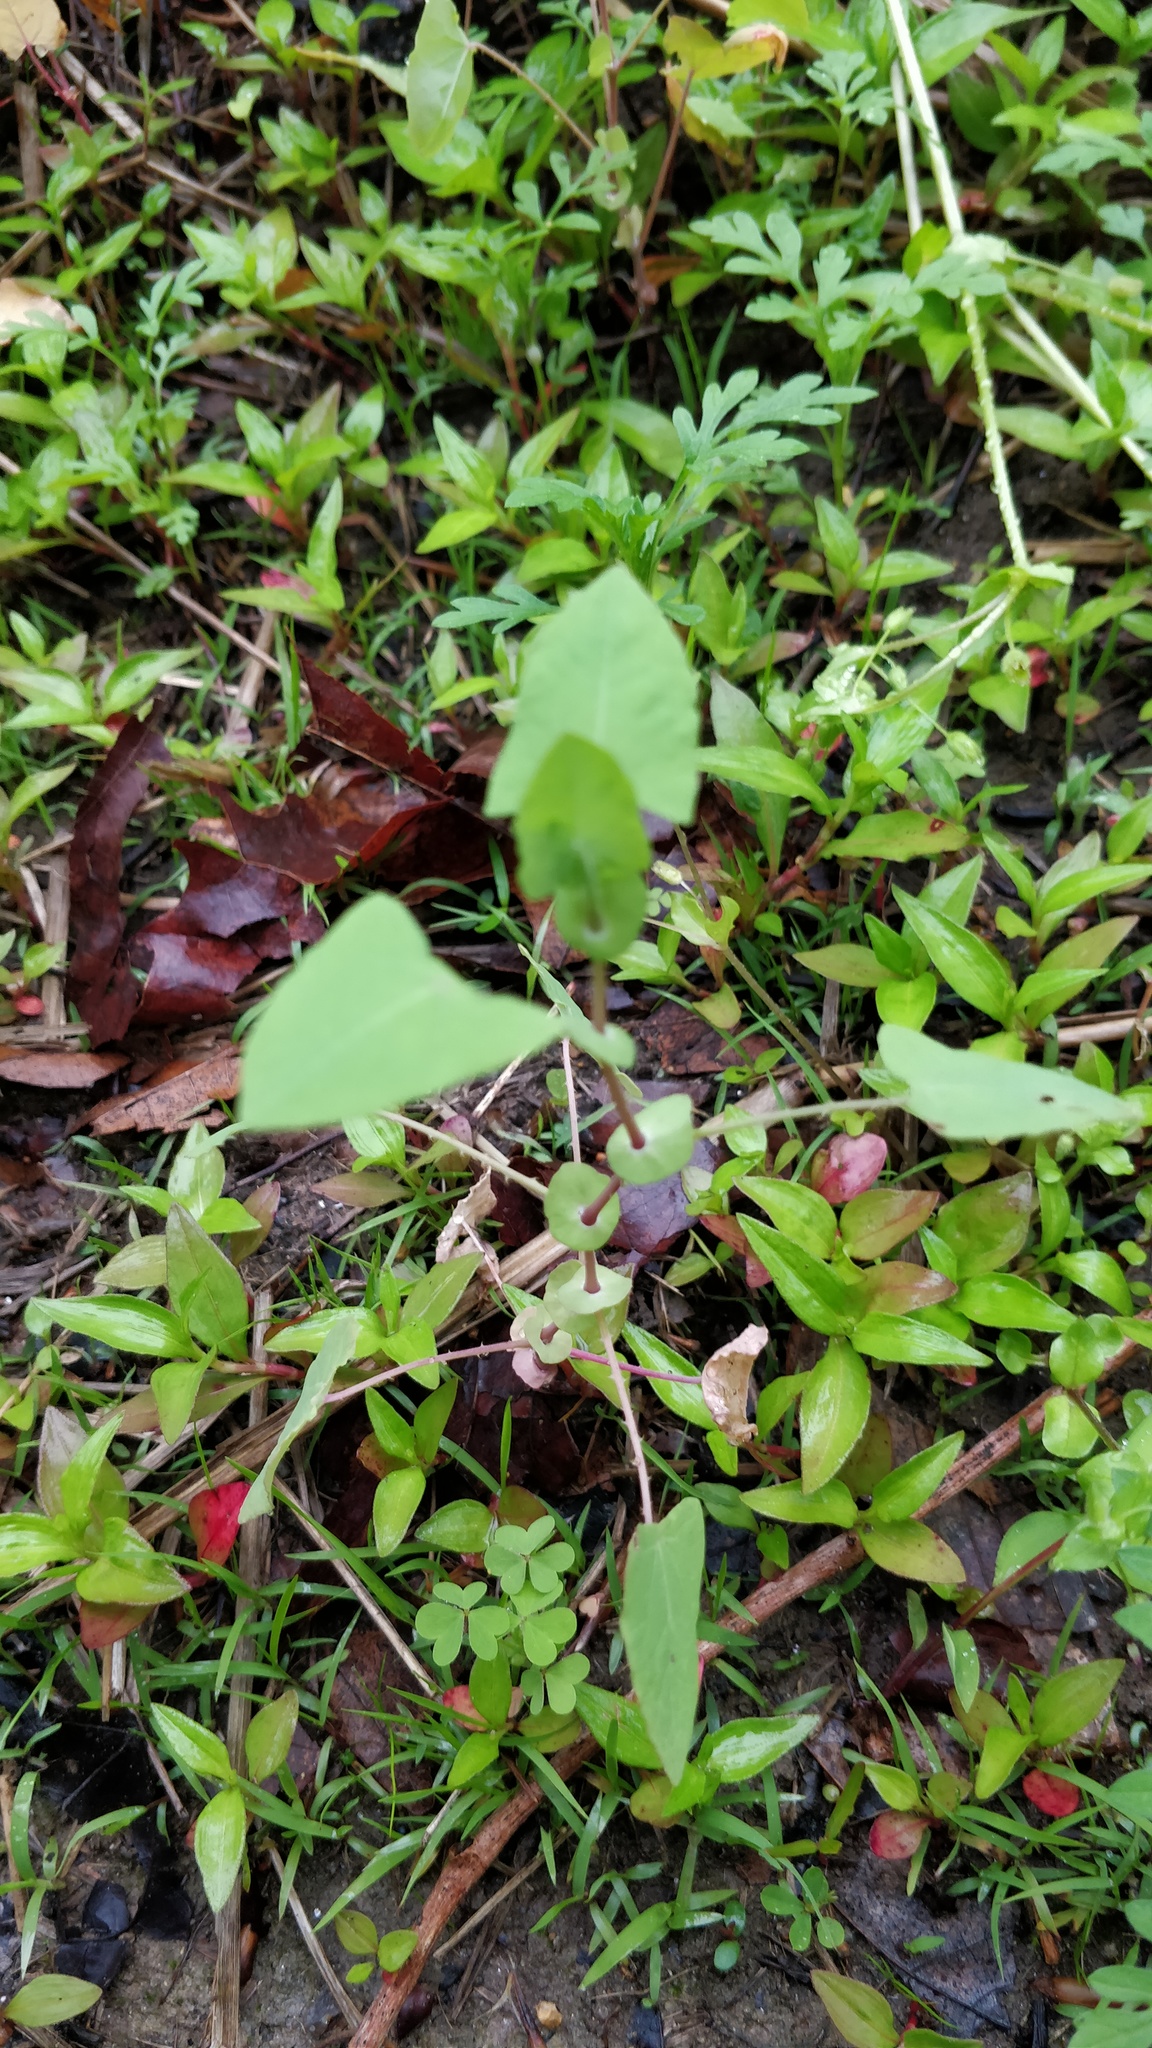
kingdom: Plantae
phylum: Tracheophyta
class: Magnoliopsida
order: Caryophyllales
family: Polygonaceae
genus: Persicaria
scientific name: Persicaria perfoliata
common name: Asiatic tearthumb
